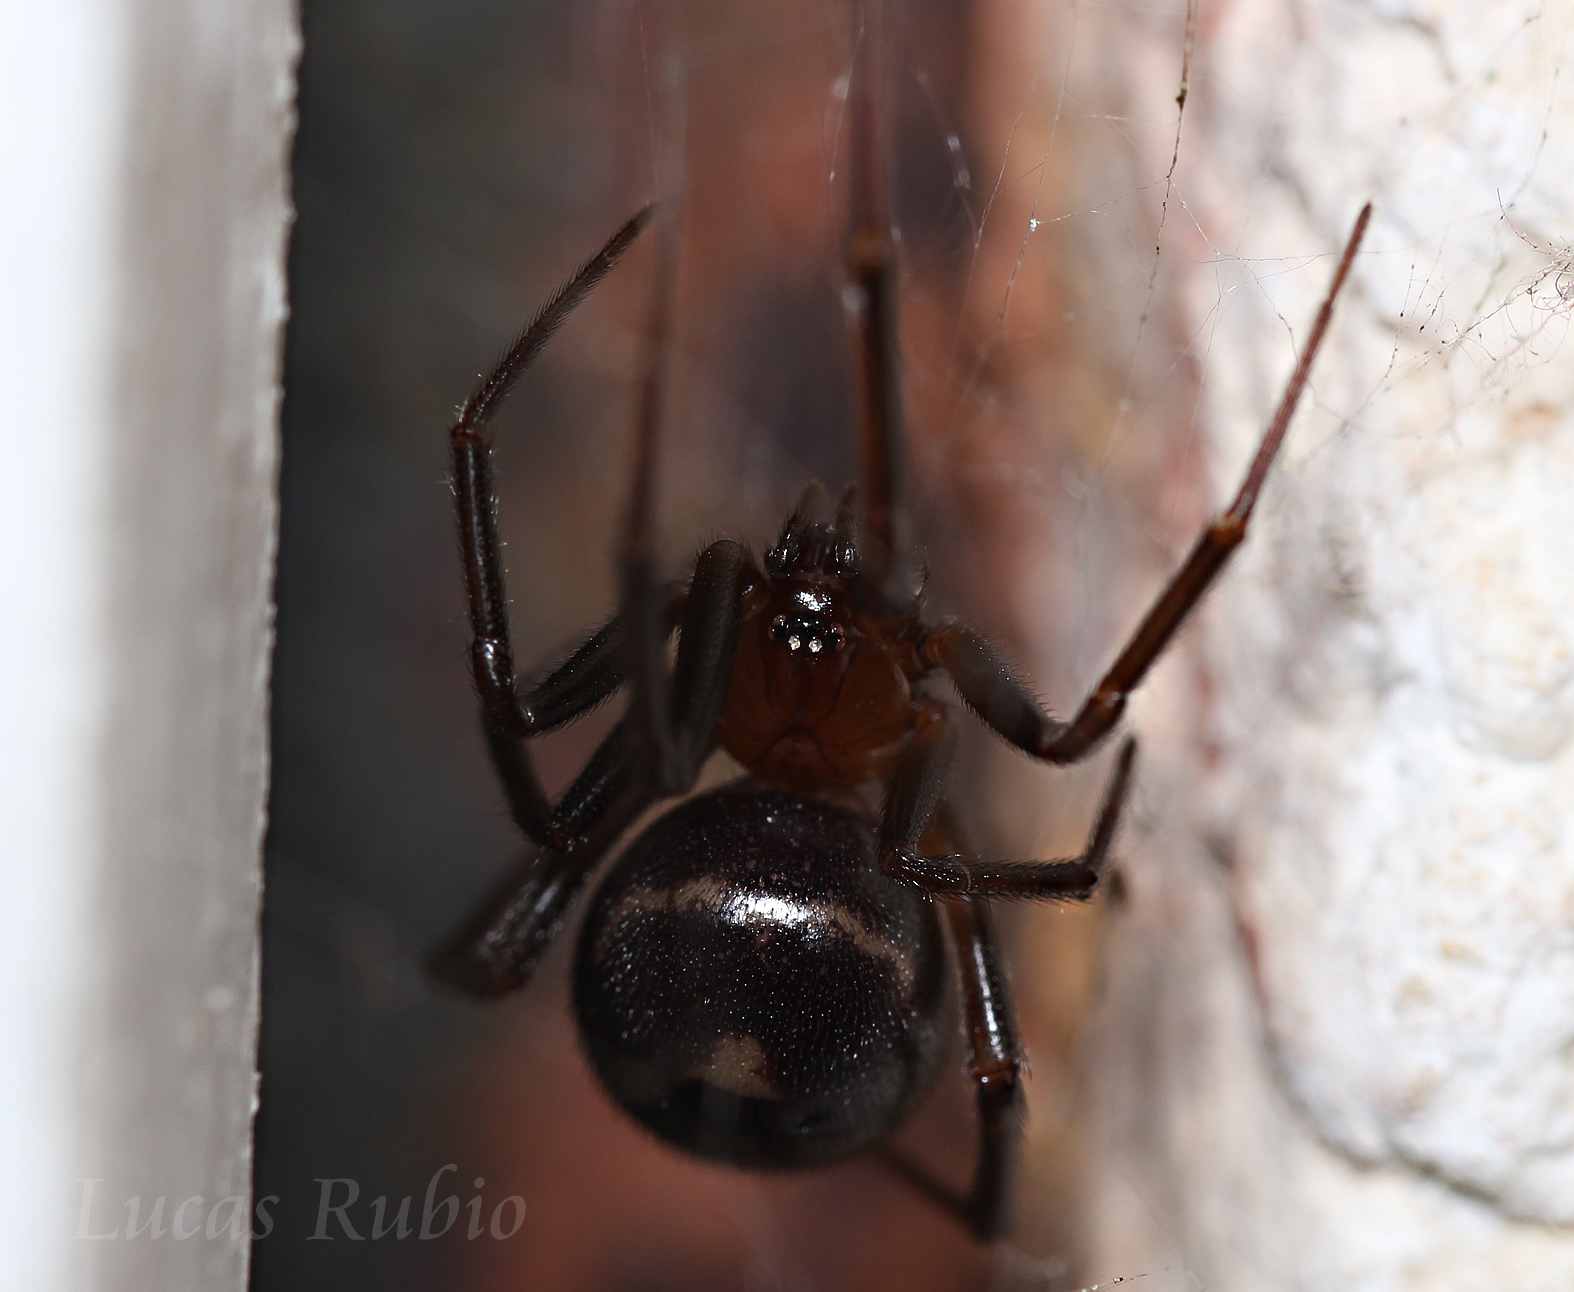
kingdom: Animalia
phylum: Arthropoda
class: Arachnida
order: Araneae
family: Theridiidae
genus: Steatoda
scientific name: Steatoda grossa
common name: False black widow
